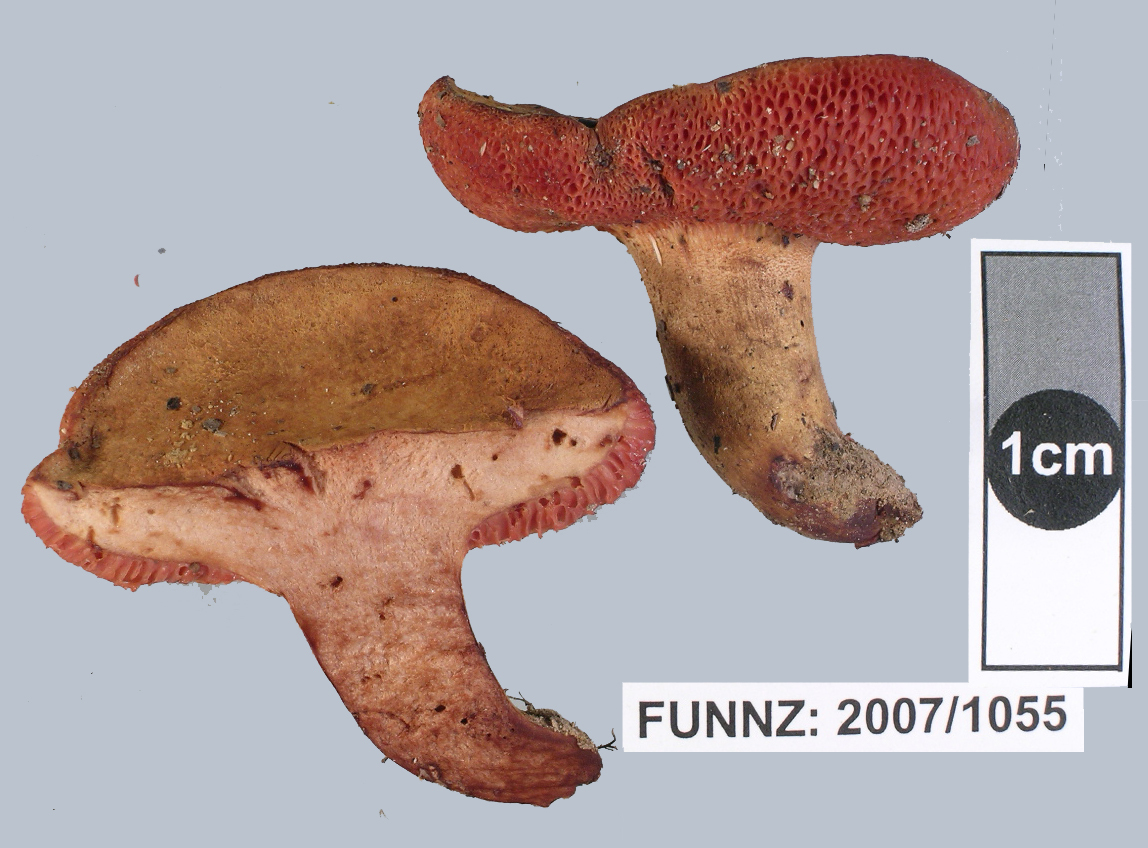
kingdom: Fungi
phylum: Basidiomycota
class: Agaricomycetes
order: Boletales
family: Boletaceae
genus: Chalciporus
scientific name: Chalciporus aurantiacus
